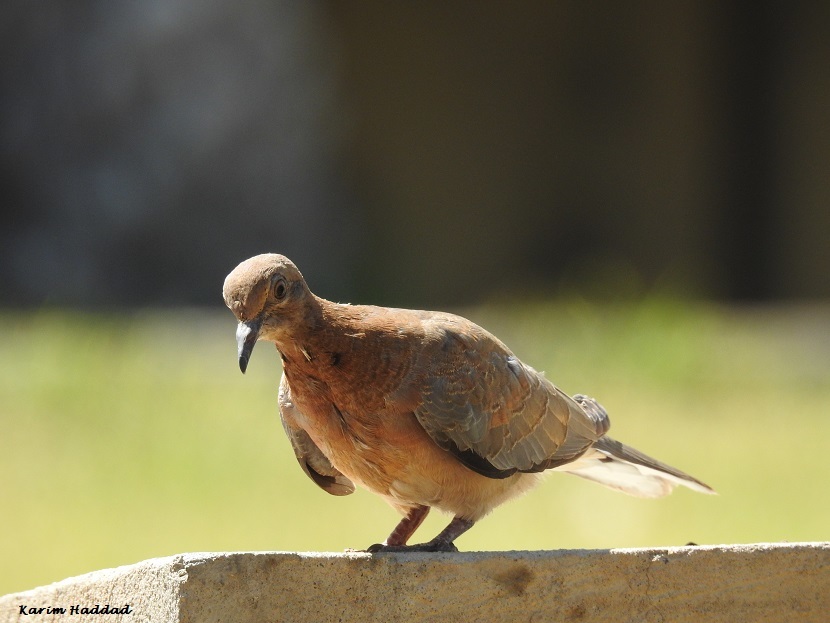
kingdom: Animalia
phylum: Chordata
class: Aves
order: Columbiformes
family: Columbidae
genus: Spilopelia
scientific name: Spilopelia senegalensis
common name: Laughing dove
